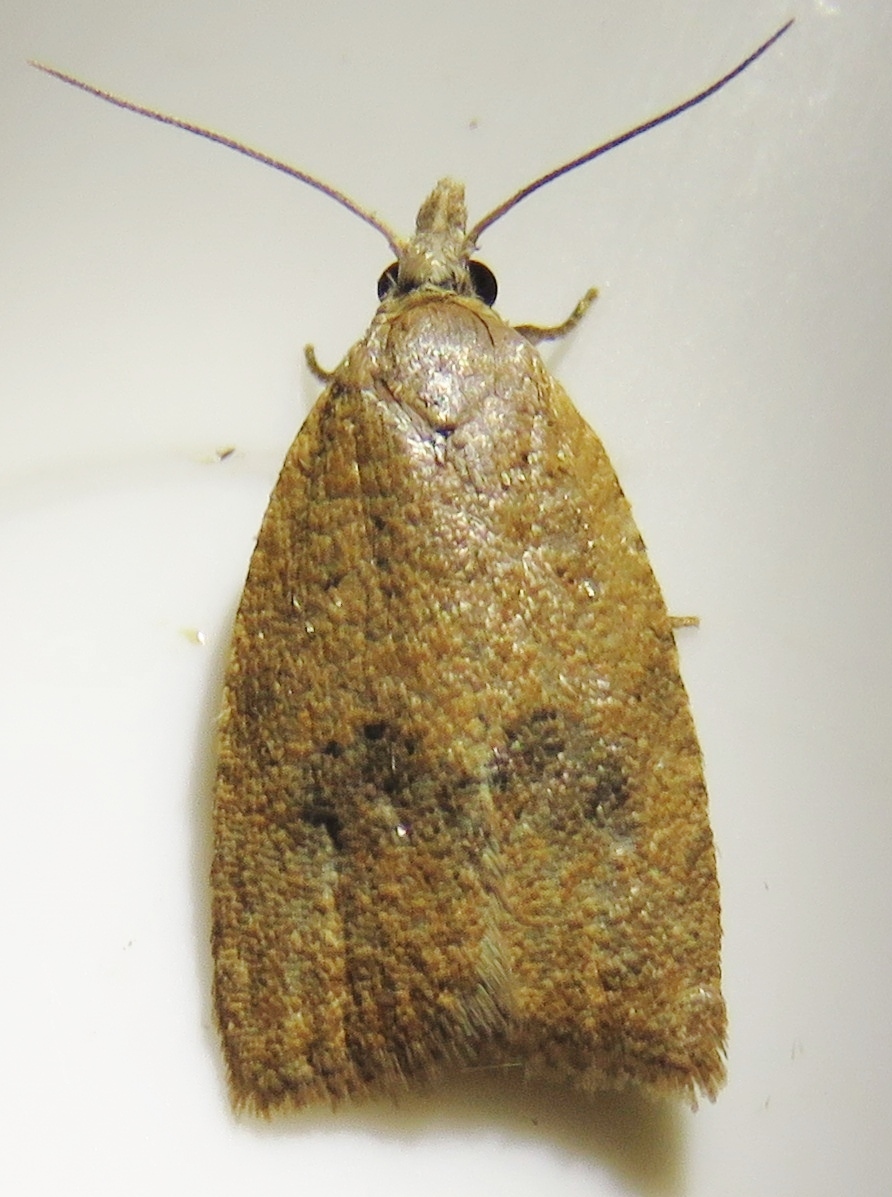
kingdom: Animalia
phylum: Arthropoda
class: Insecta
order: Lepidoptera
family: Tortricidae
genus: Sparganothoides
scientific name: Sparganothoides lentiginosana
